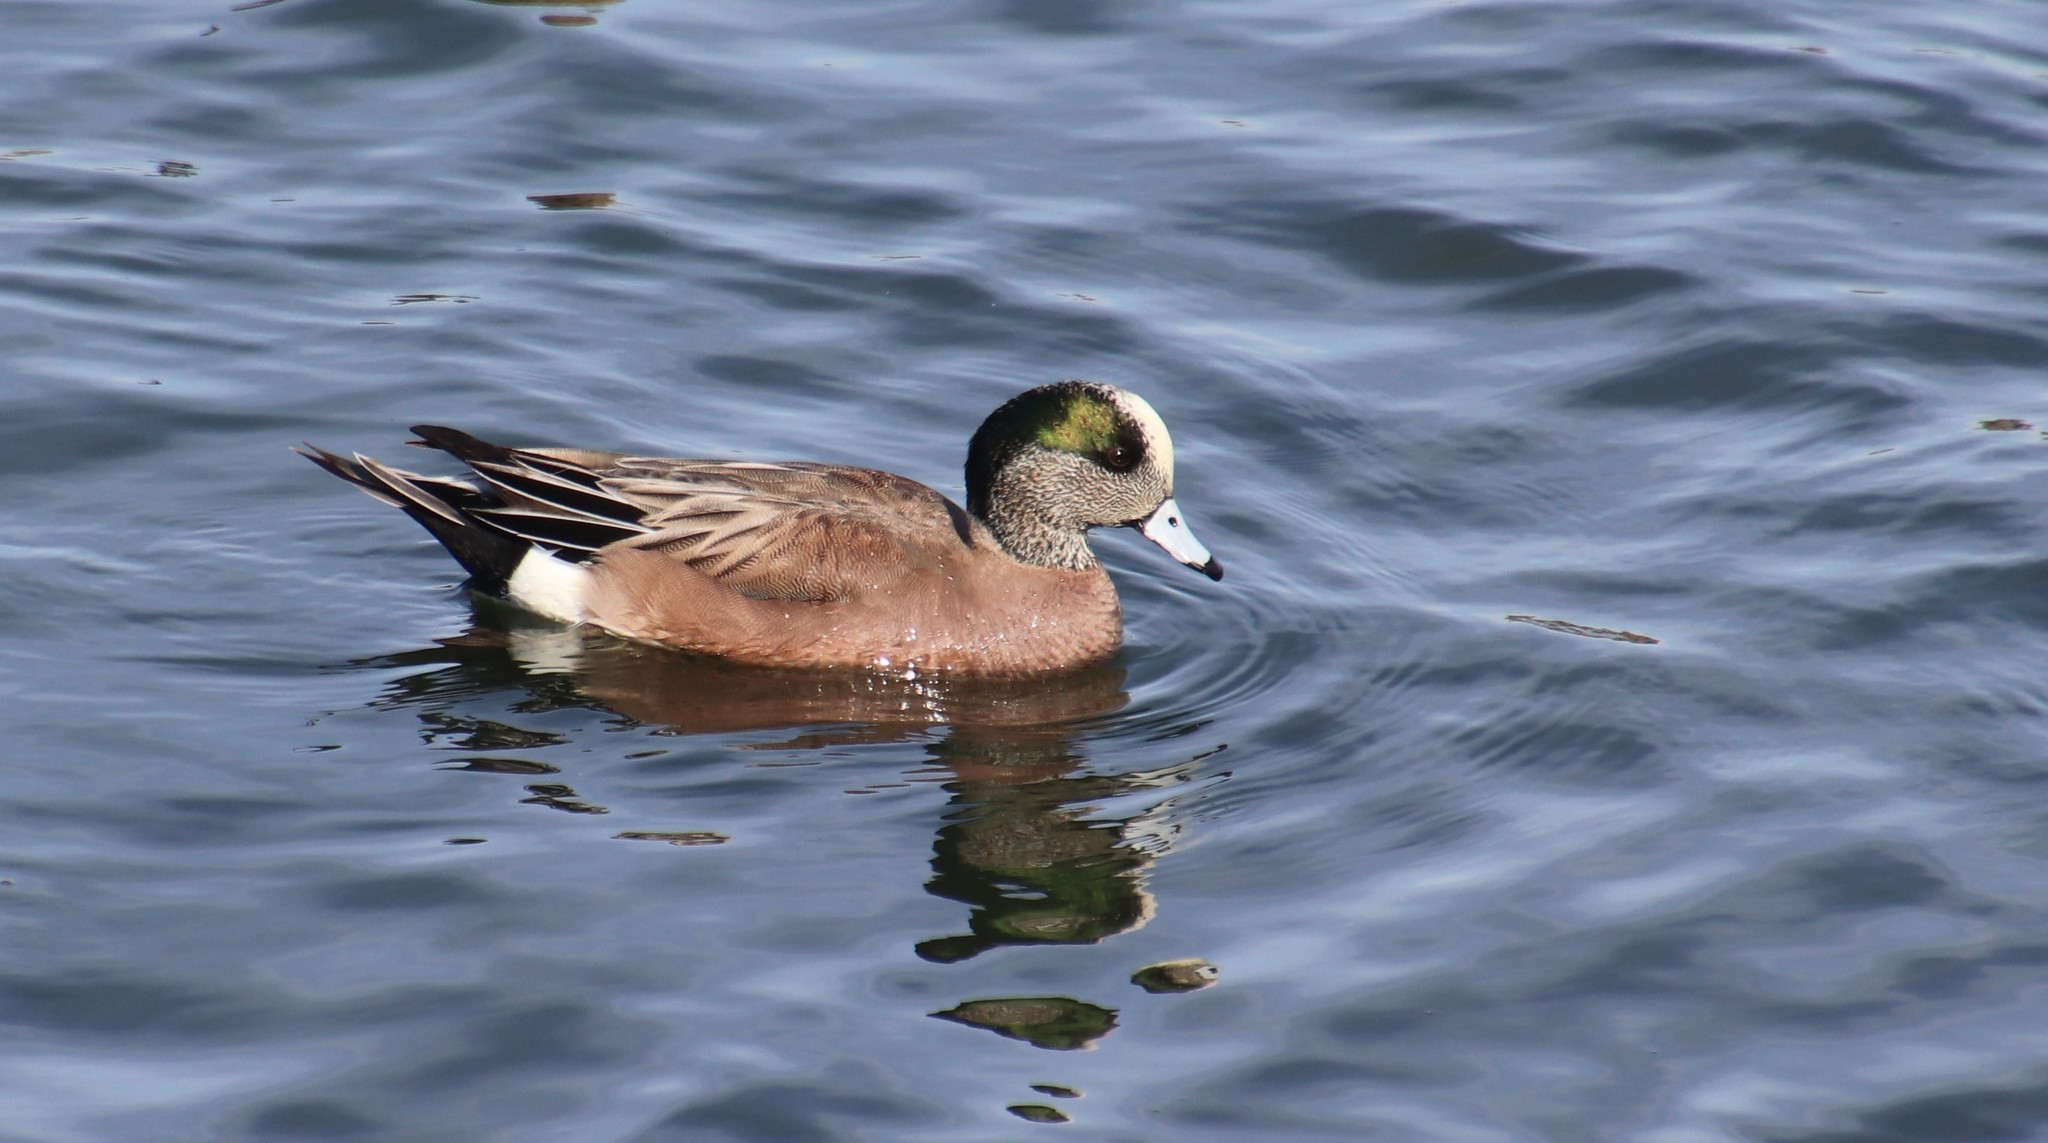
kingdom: Animalia
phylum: Chordata
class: Aves
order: Anseriformes
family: Anatidae
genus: Mareca
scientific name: Mareca americana
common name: American wigeon
